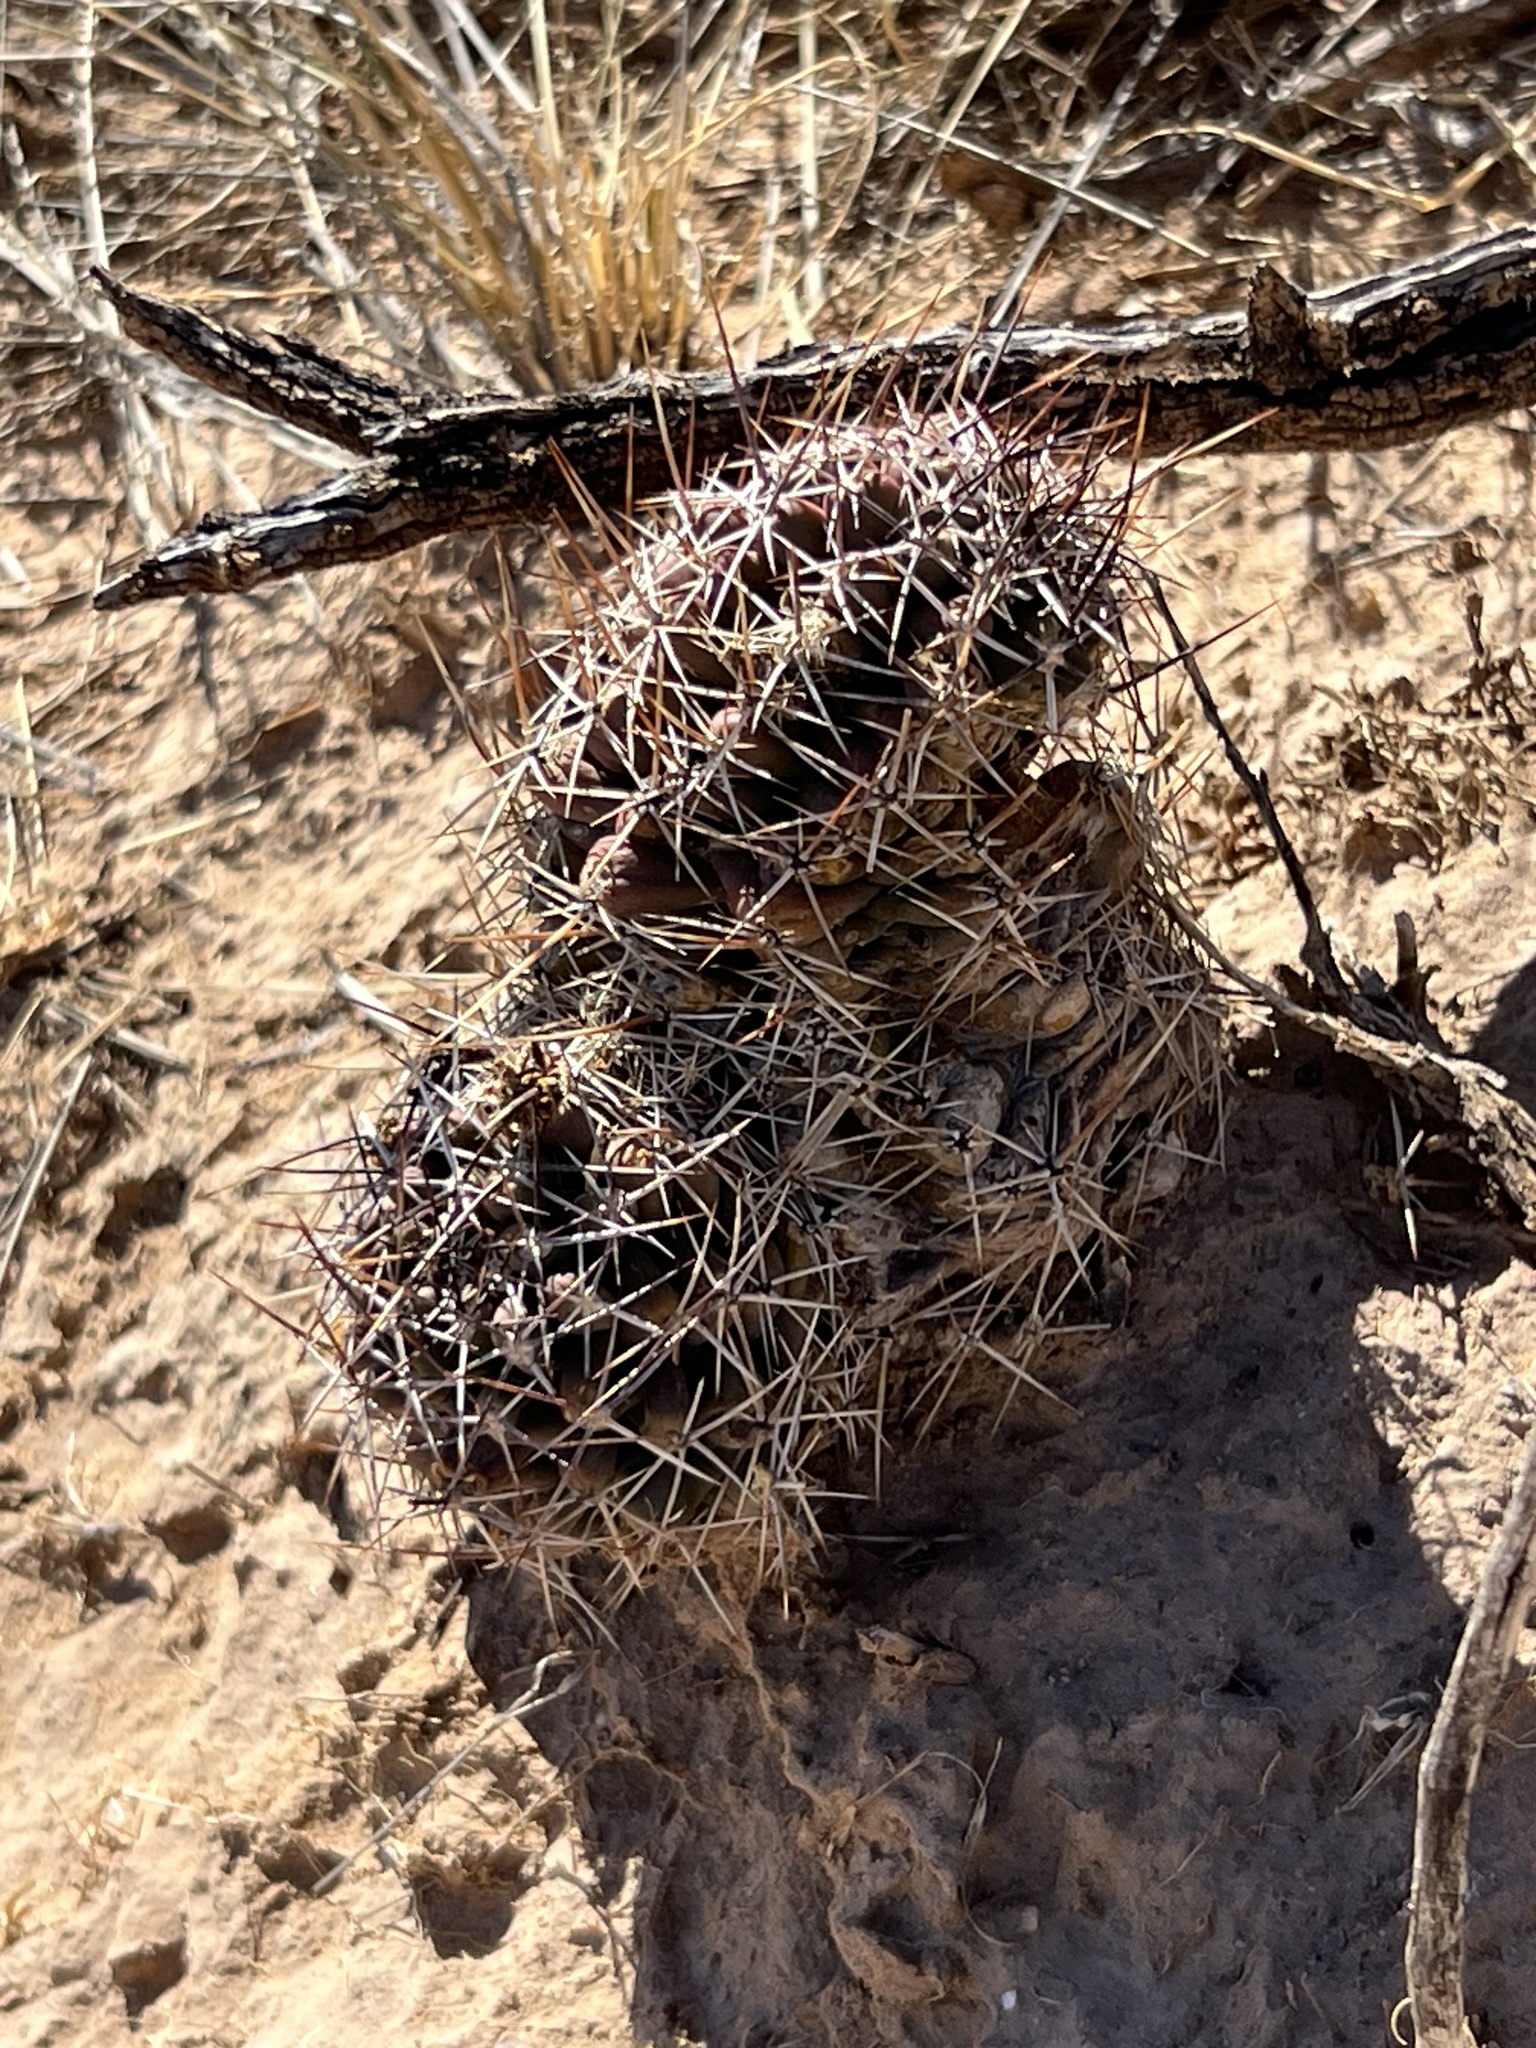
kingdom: Plantae
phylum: Tracheophyta
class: Magnoliopsida
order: Caryophyllales
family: Cactaceae
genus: Echinocereus
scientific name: Echinocereus fendleri
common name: Fendler's hedgehog cactus
